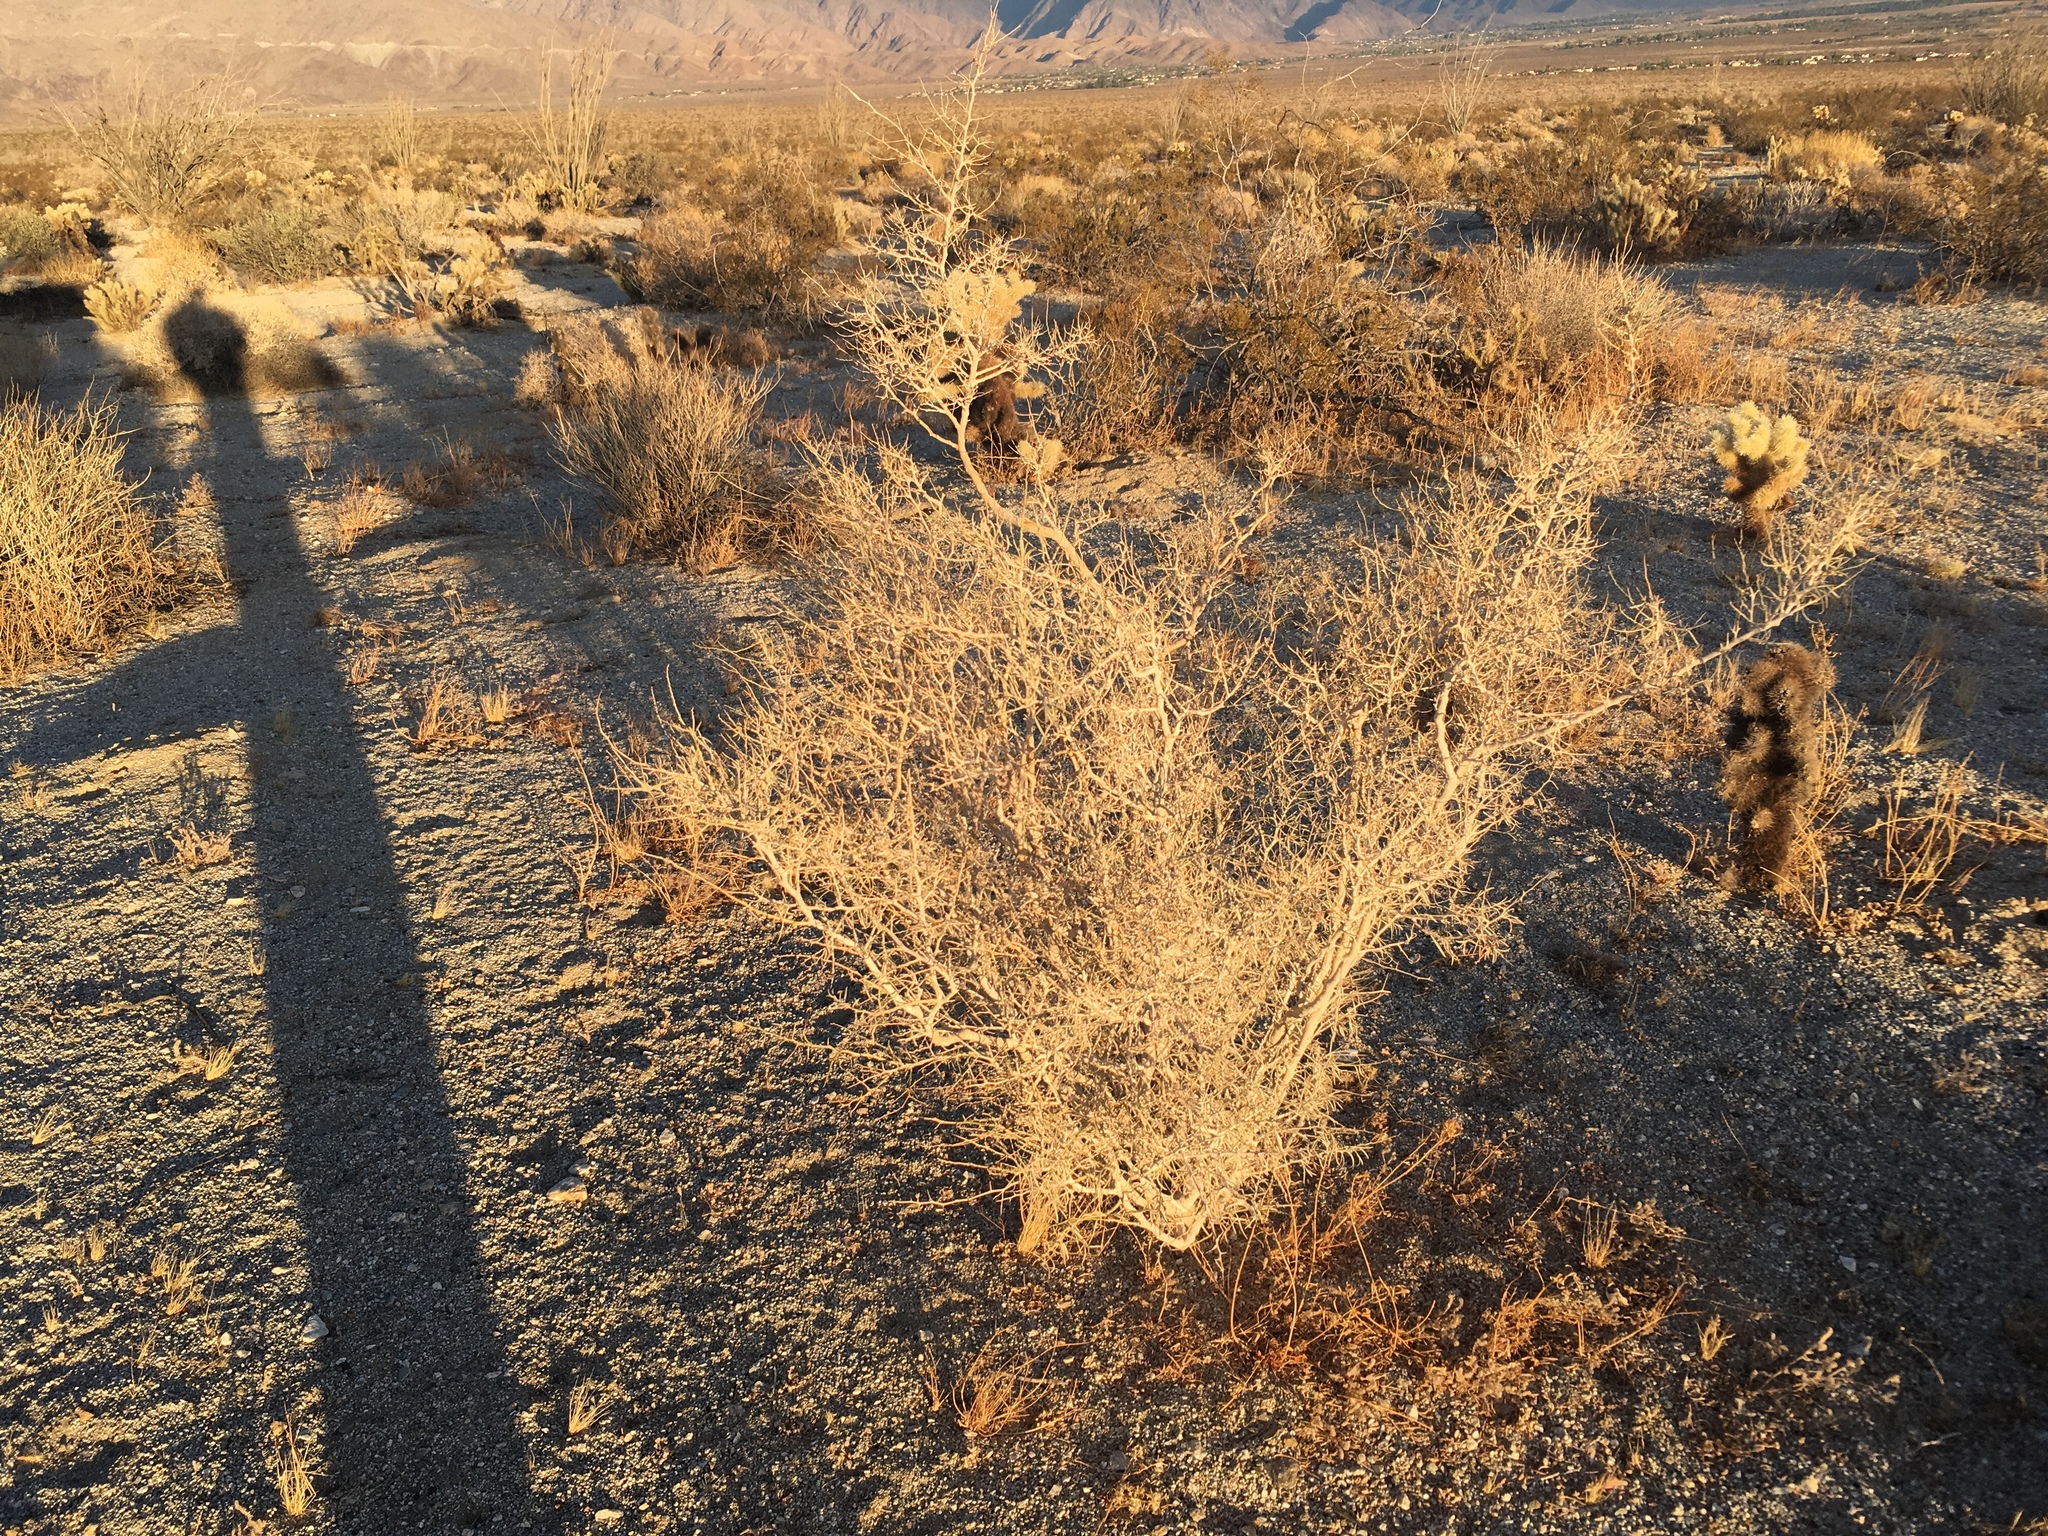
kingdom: Plantae
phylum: Tracheophyta
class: Magnoliopsida
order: Fabales
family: Fabaceae
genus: Psorothamnus
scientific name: Psorothamnus schottii
